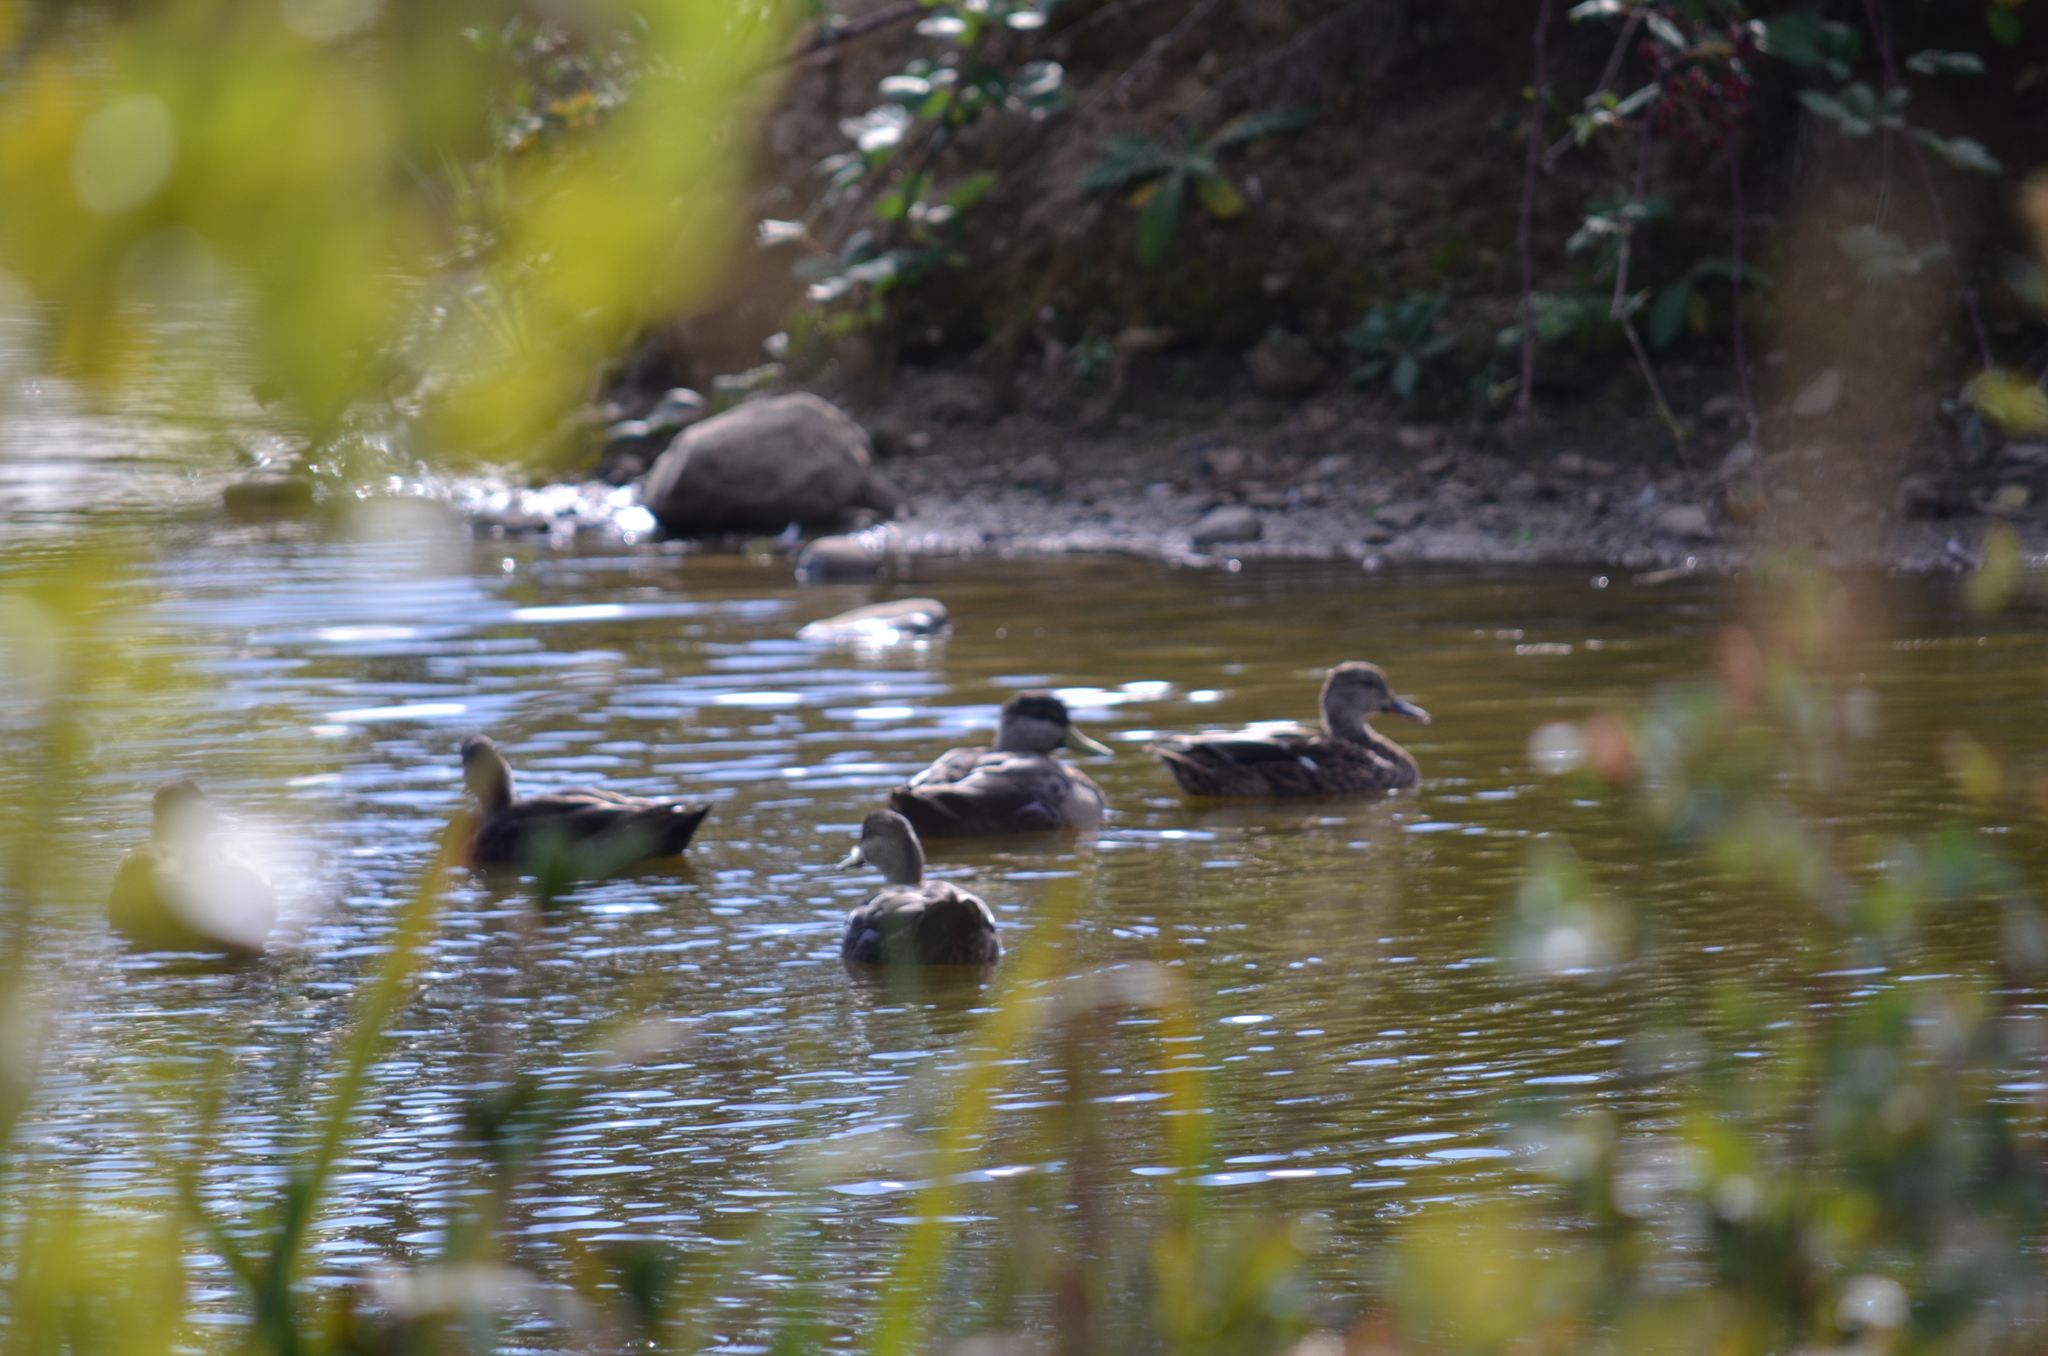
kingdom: Animalia
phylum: Chordata
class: Aves
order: Anseriformes
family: Anatidae
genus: Anas
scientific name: Anas platyrhynchos
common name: Mallard
